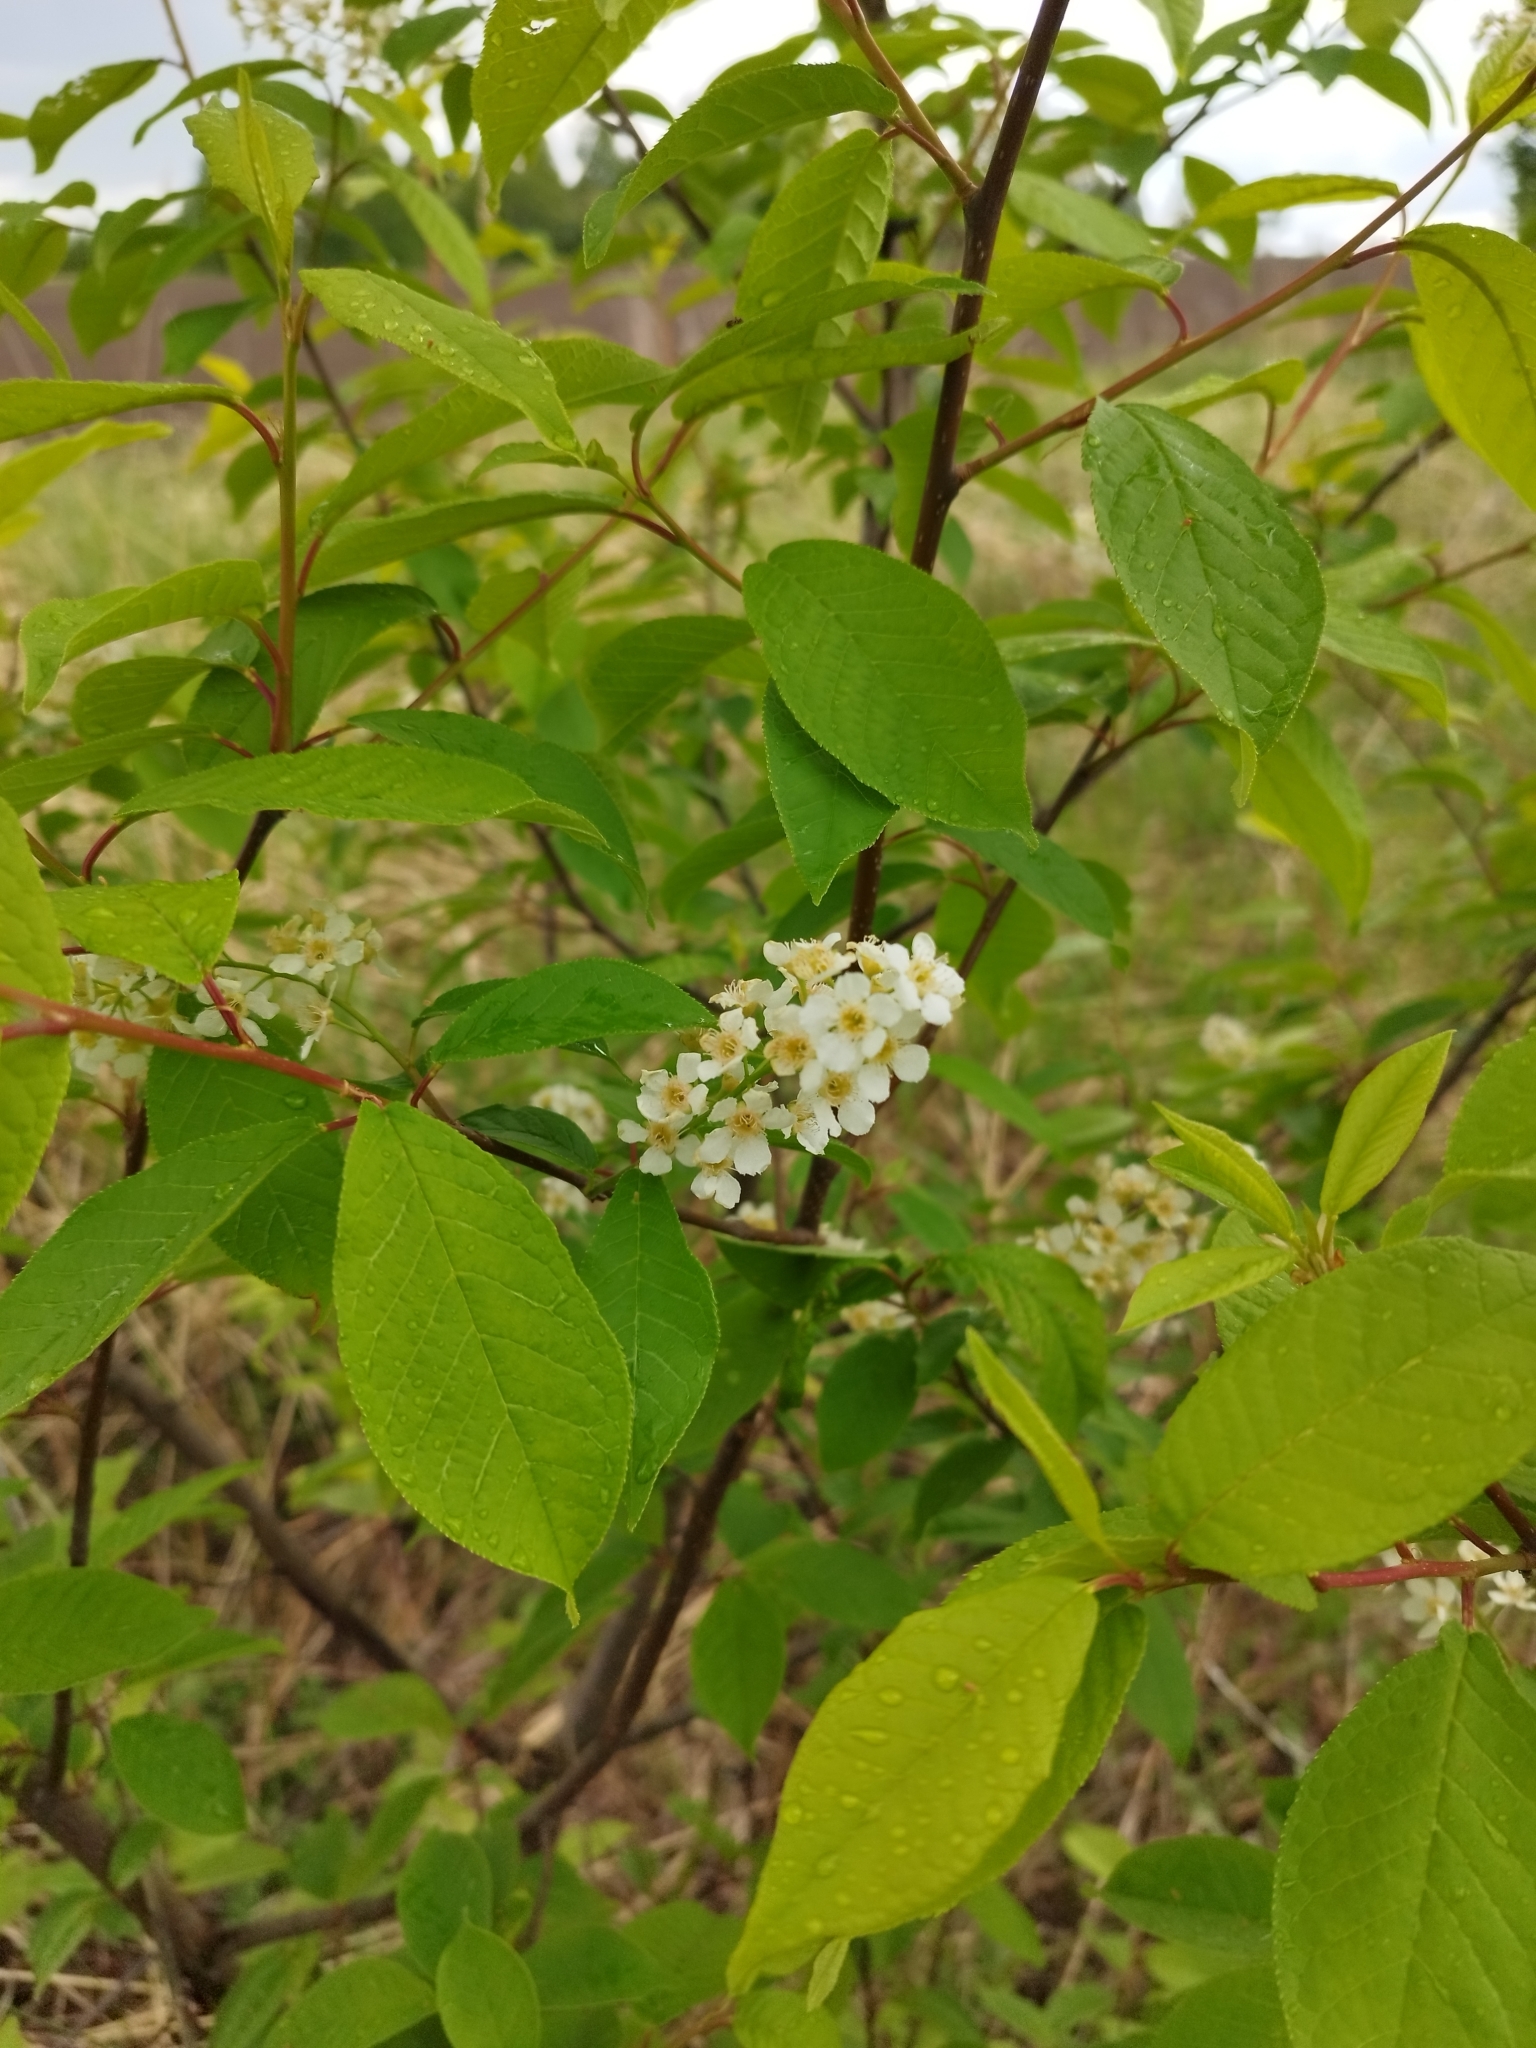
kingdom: Plantae
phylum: Tracheophyta
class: Magnoliopsida
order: Rosales
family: Rosaceae
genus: Prunus
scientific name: Prunus padus
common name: Bird cherry
